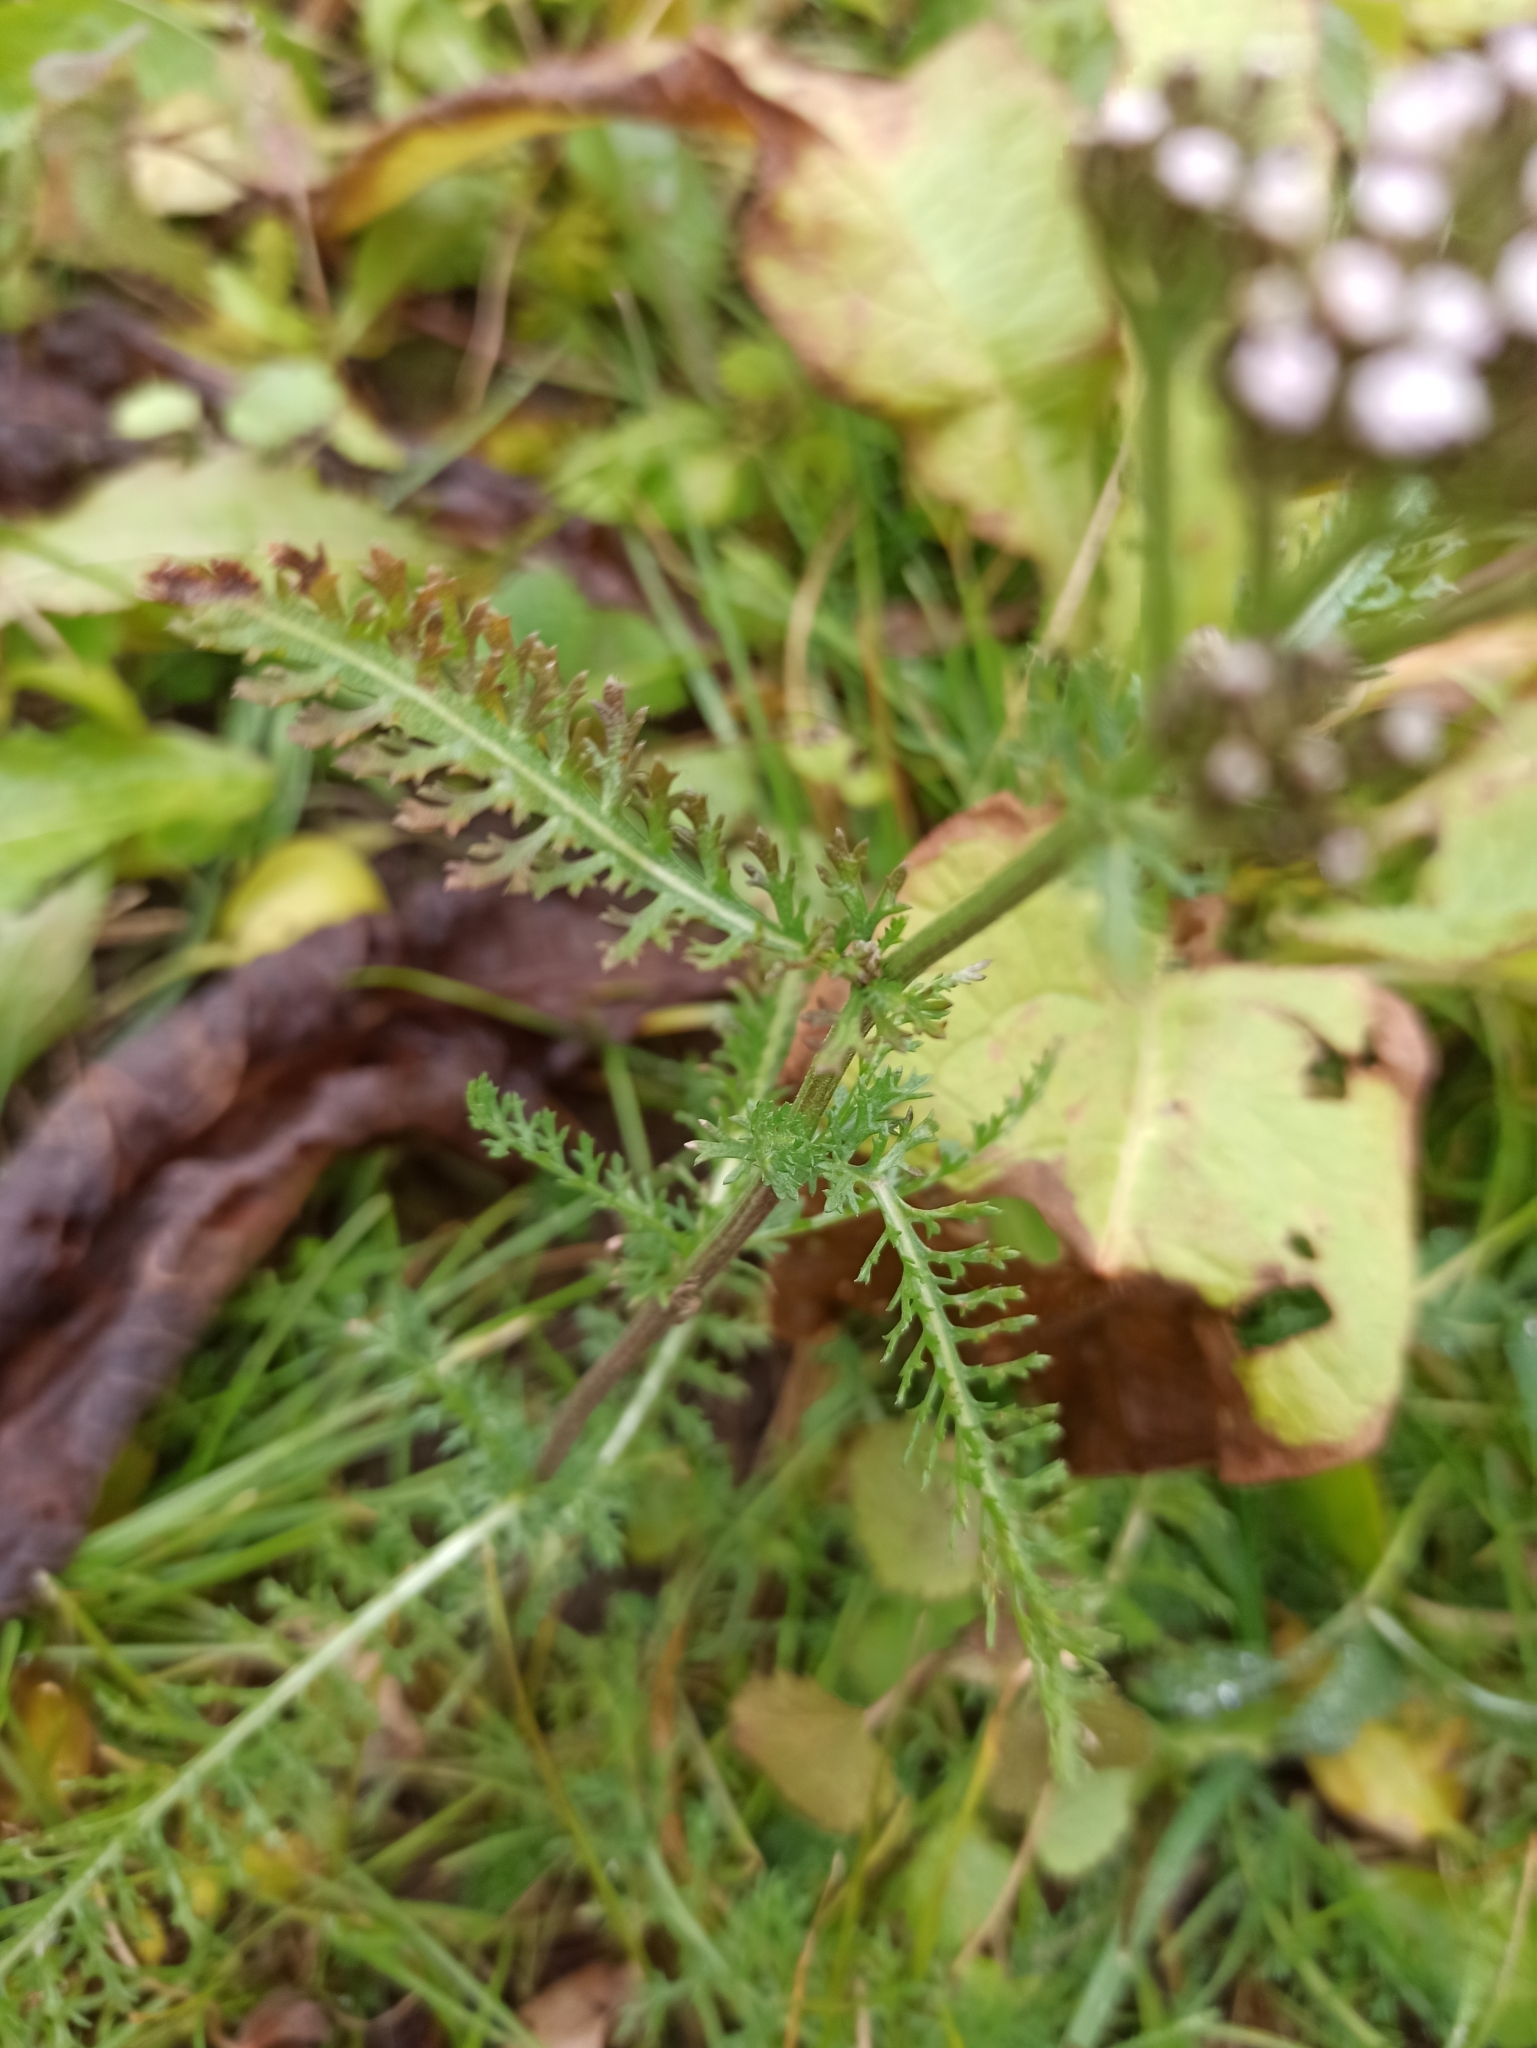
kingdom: Plantae
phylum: Tracheophyta
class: Magnoliopsida
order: Asterales
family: Asteraceae
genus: Achillea
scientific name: Achillea millefolium
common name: Yarrow
